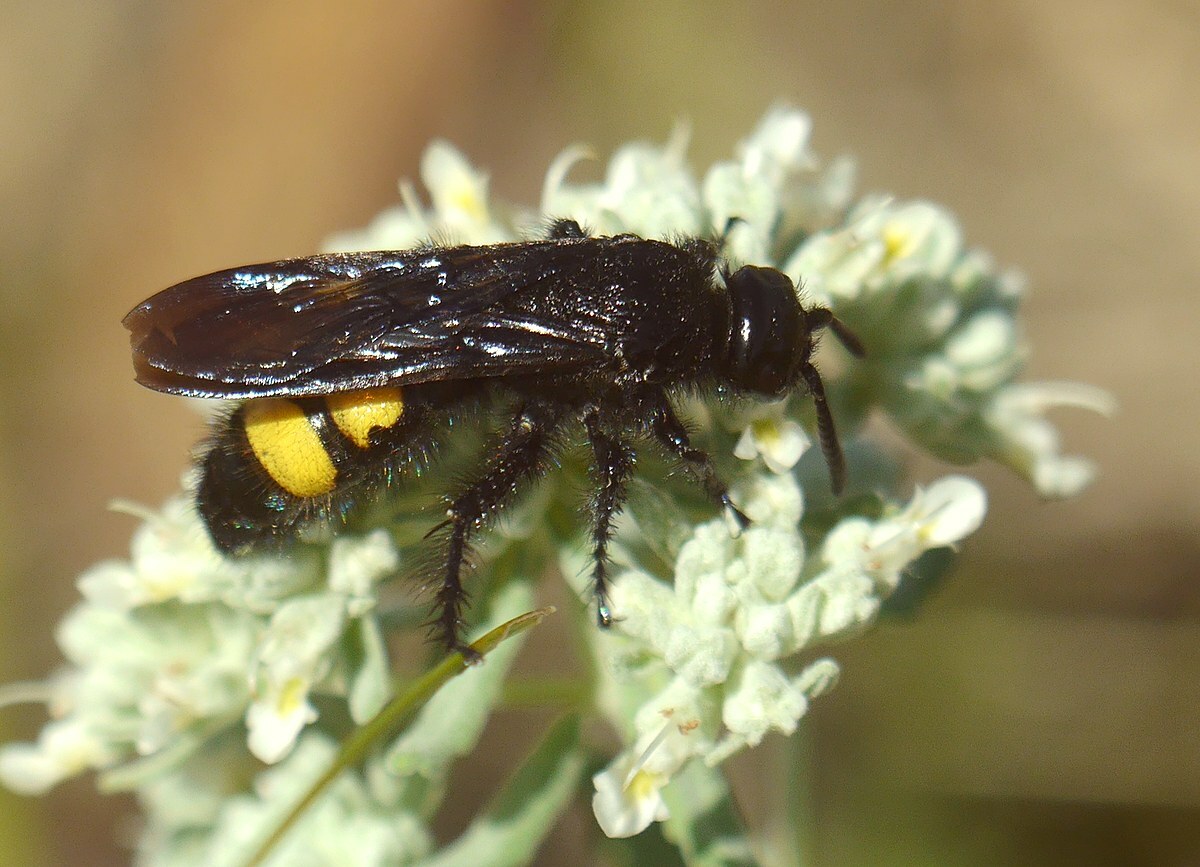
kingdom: Animalia
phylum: Arthropoda
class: Insecta
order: Hymenoptera
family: Scoliidae
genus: Scolia
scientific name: Scolia hirta
